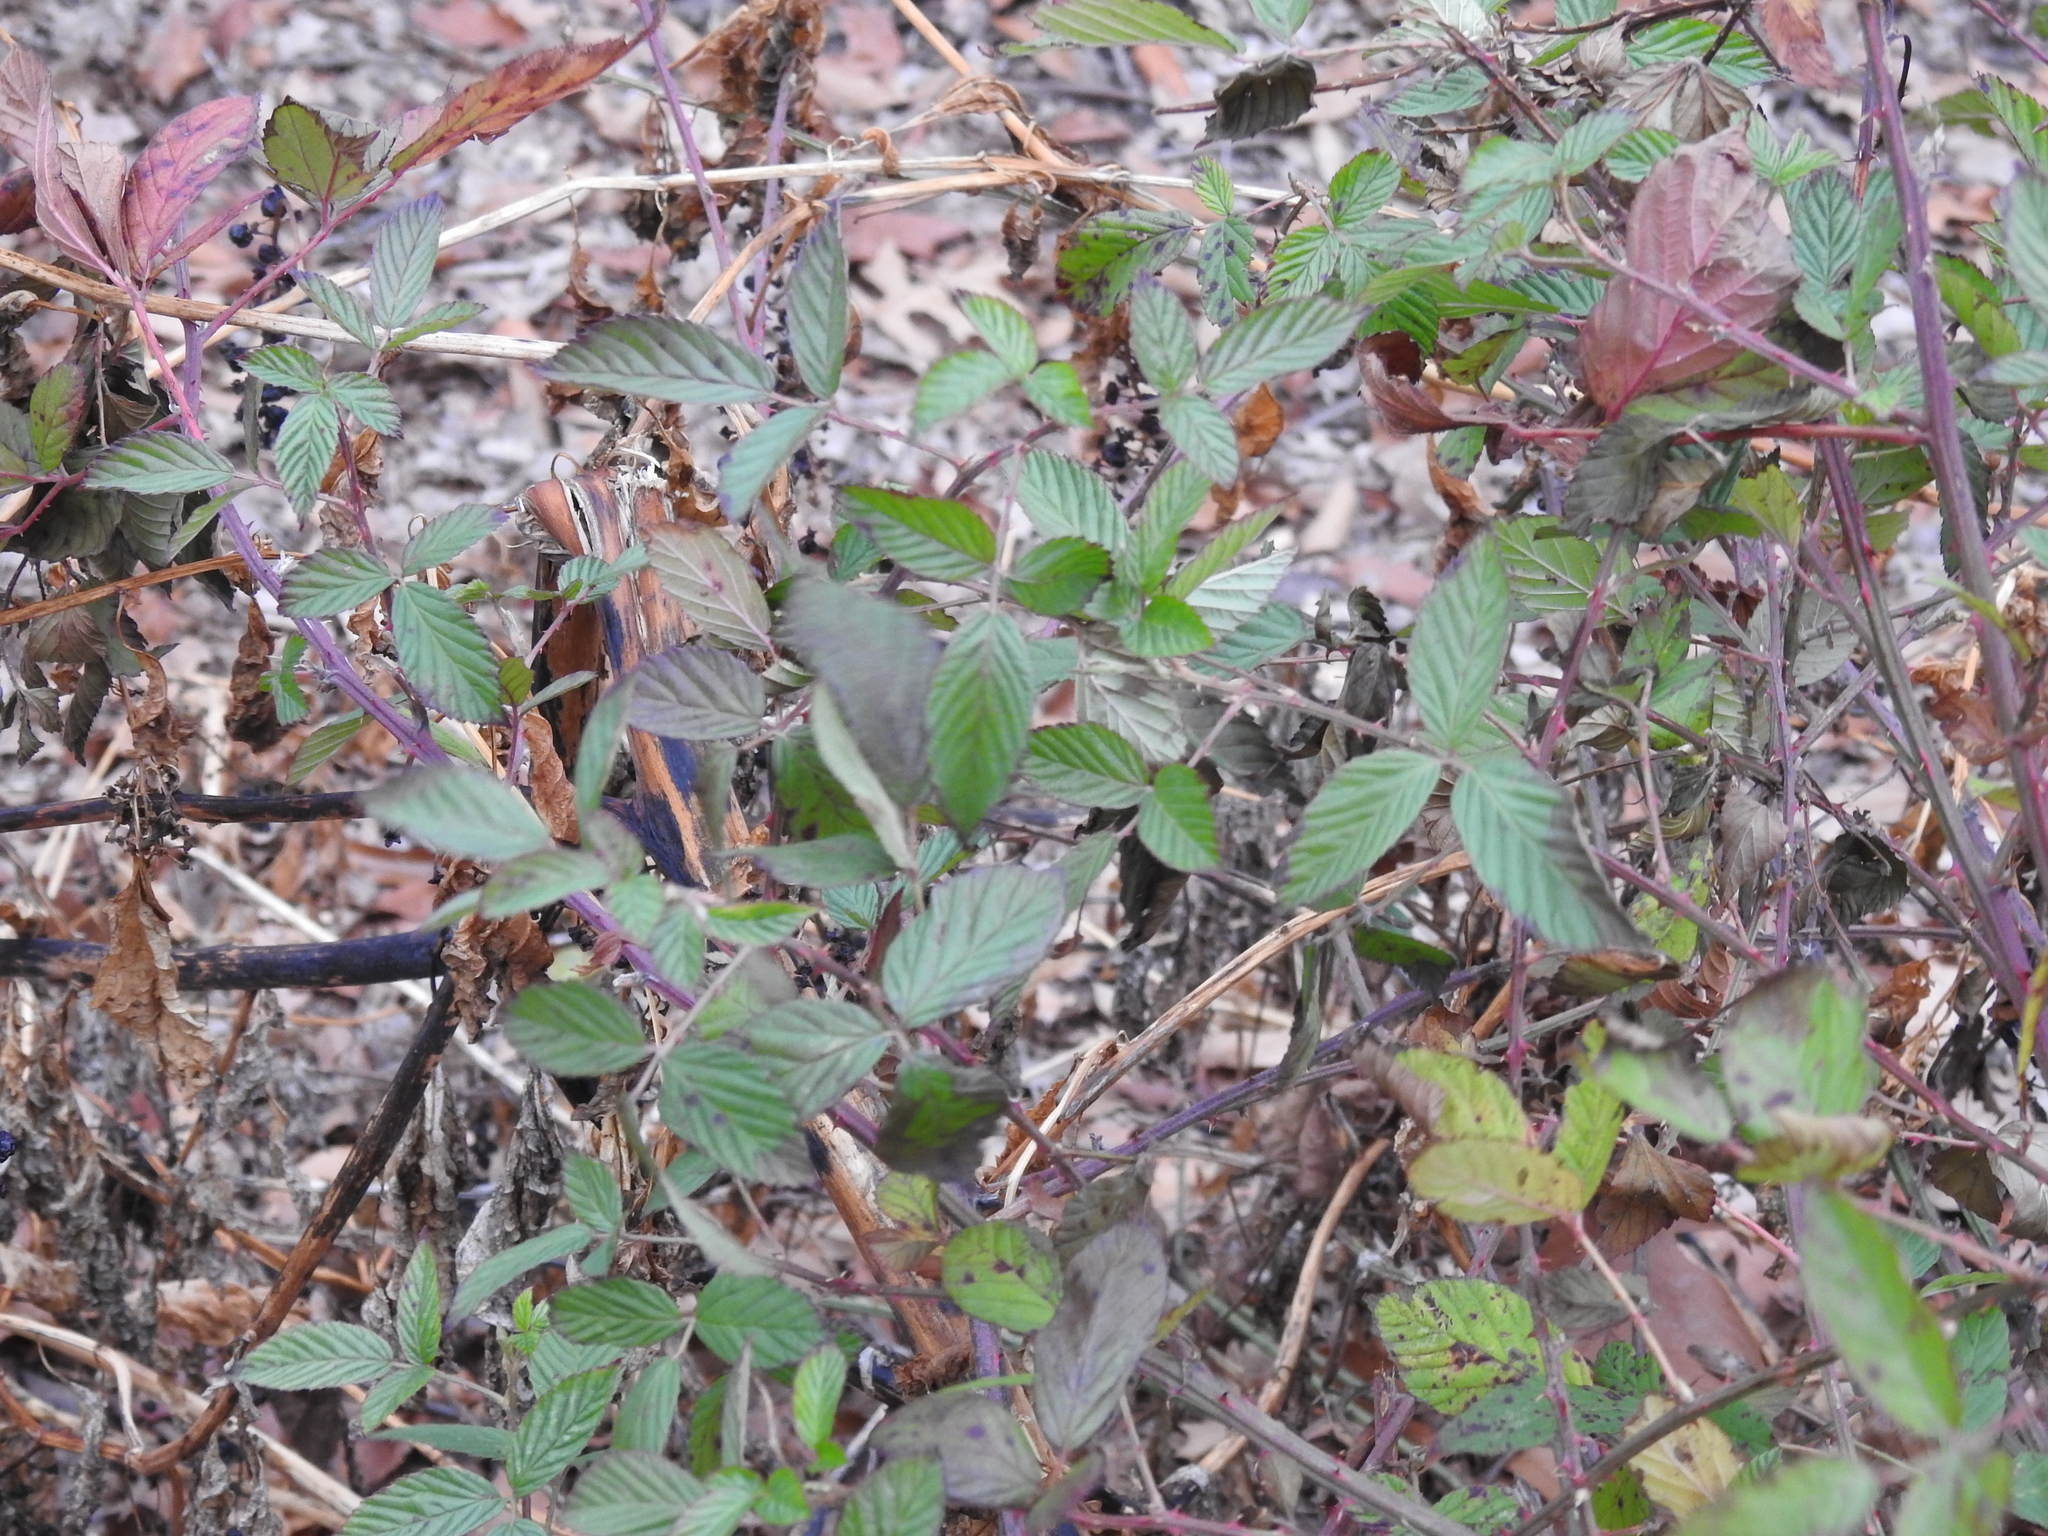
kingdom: Plantae
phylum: Tracheophyta
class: Magnoliopsida
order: Rosales
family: Rosaceae
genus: Rubus
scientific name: Rubus allegheniensis
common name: Allegheny blackberry
